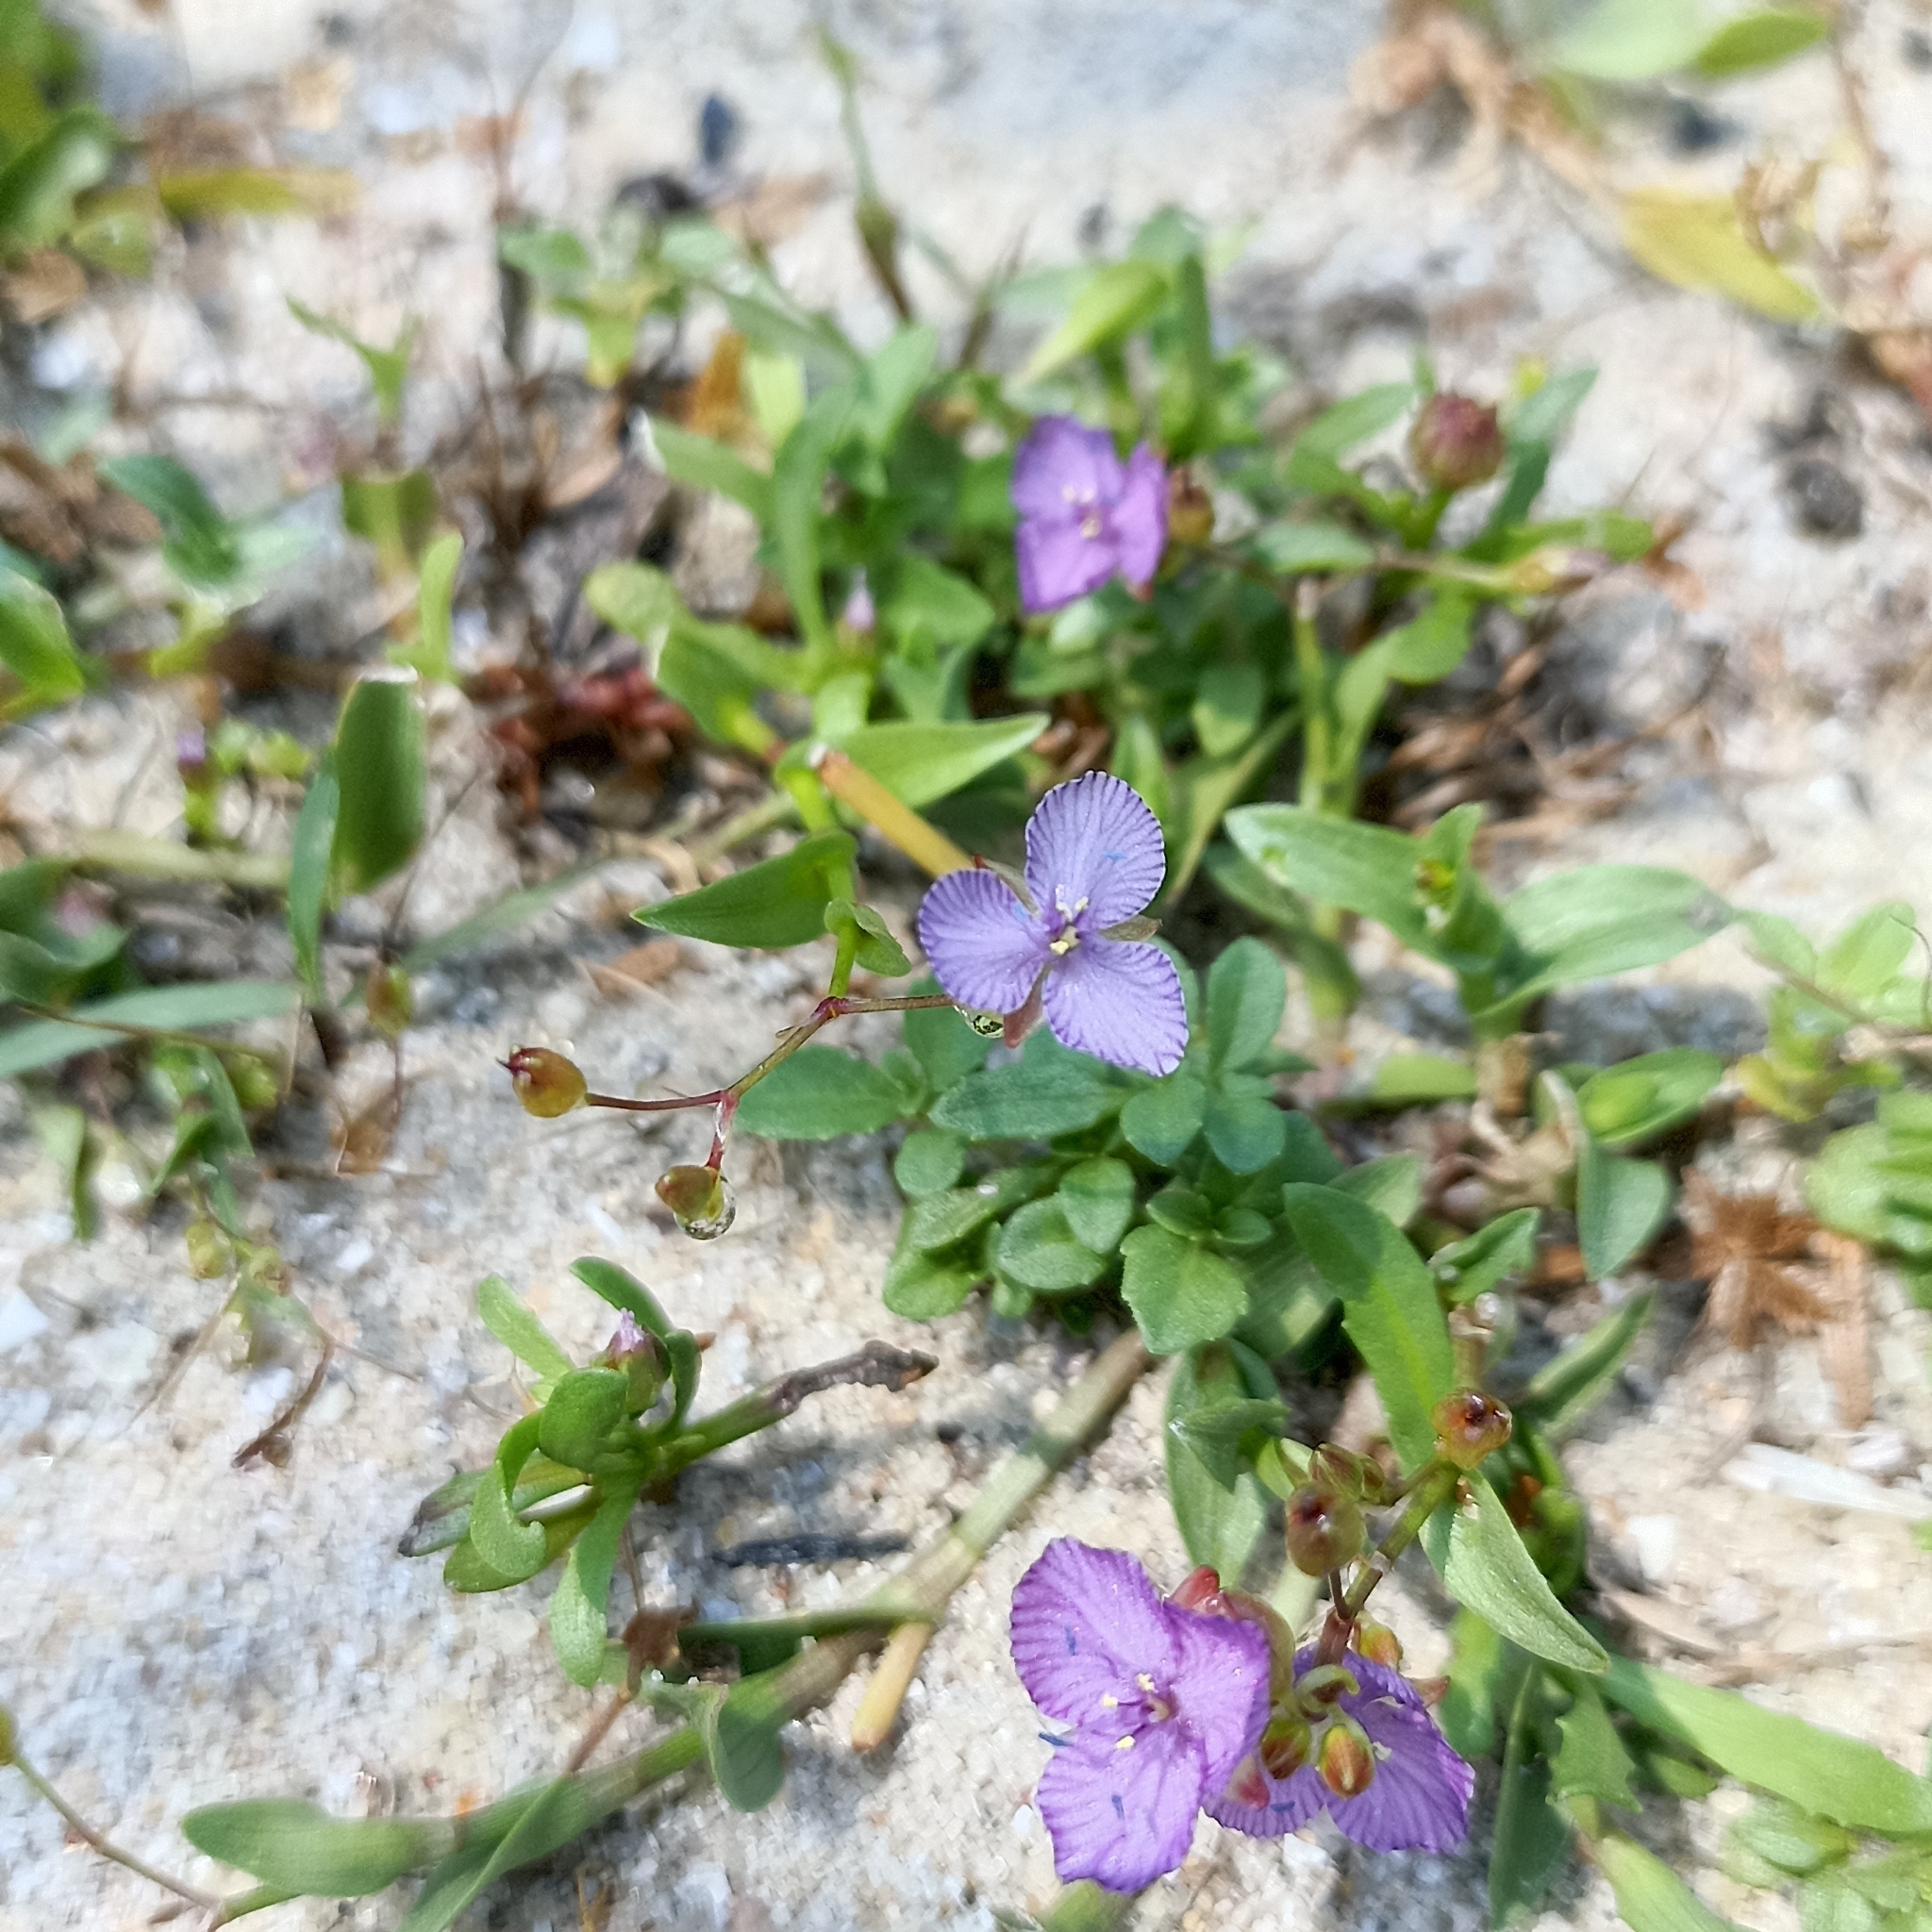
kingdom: Plantae
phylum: Tracheophyta
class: Liliopsida
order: Commelinales
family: Commelinaceae
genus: Murdannia
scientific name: Murdannia striatipetala
